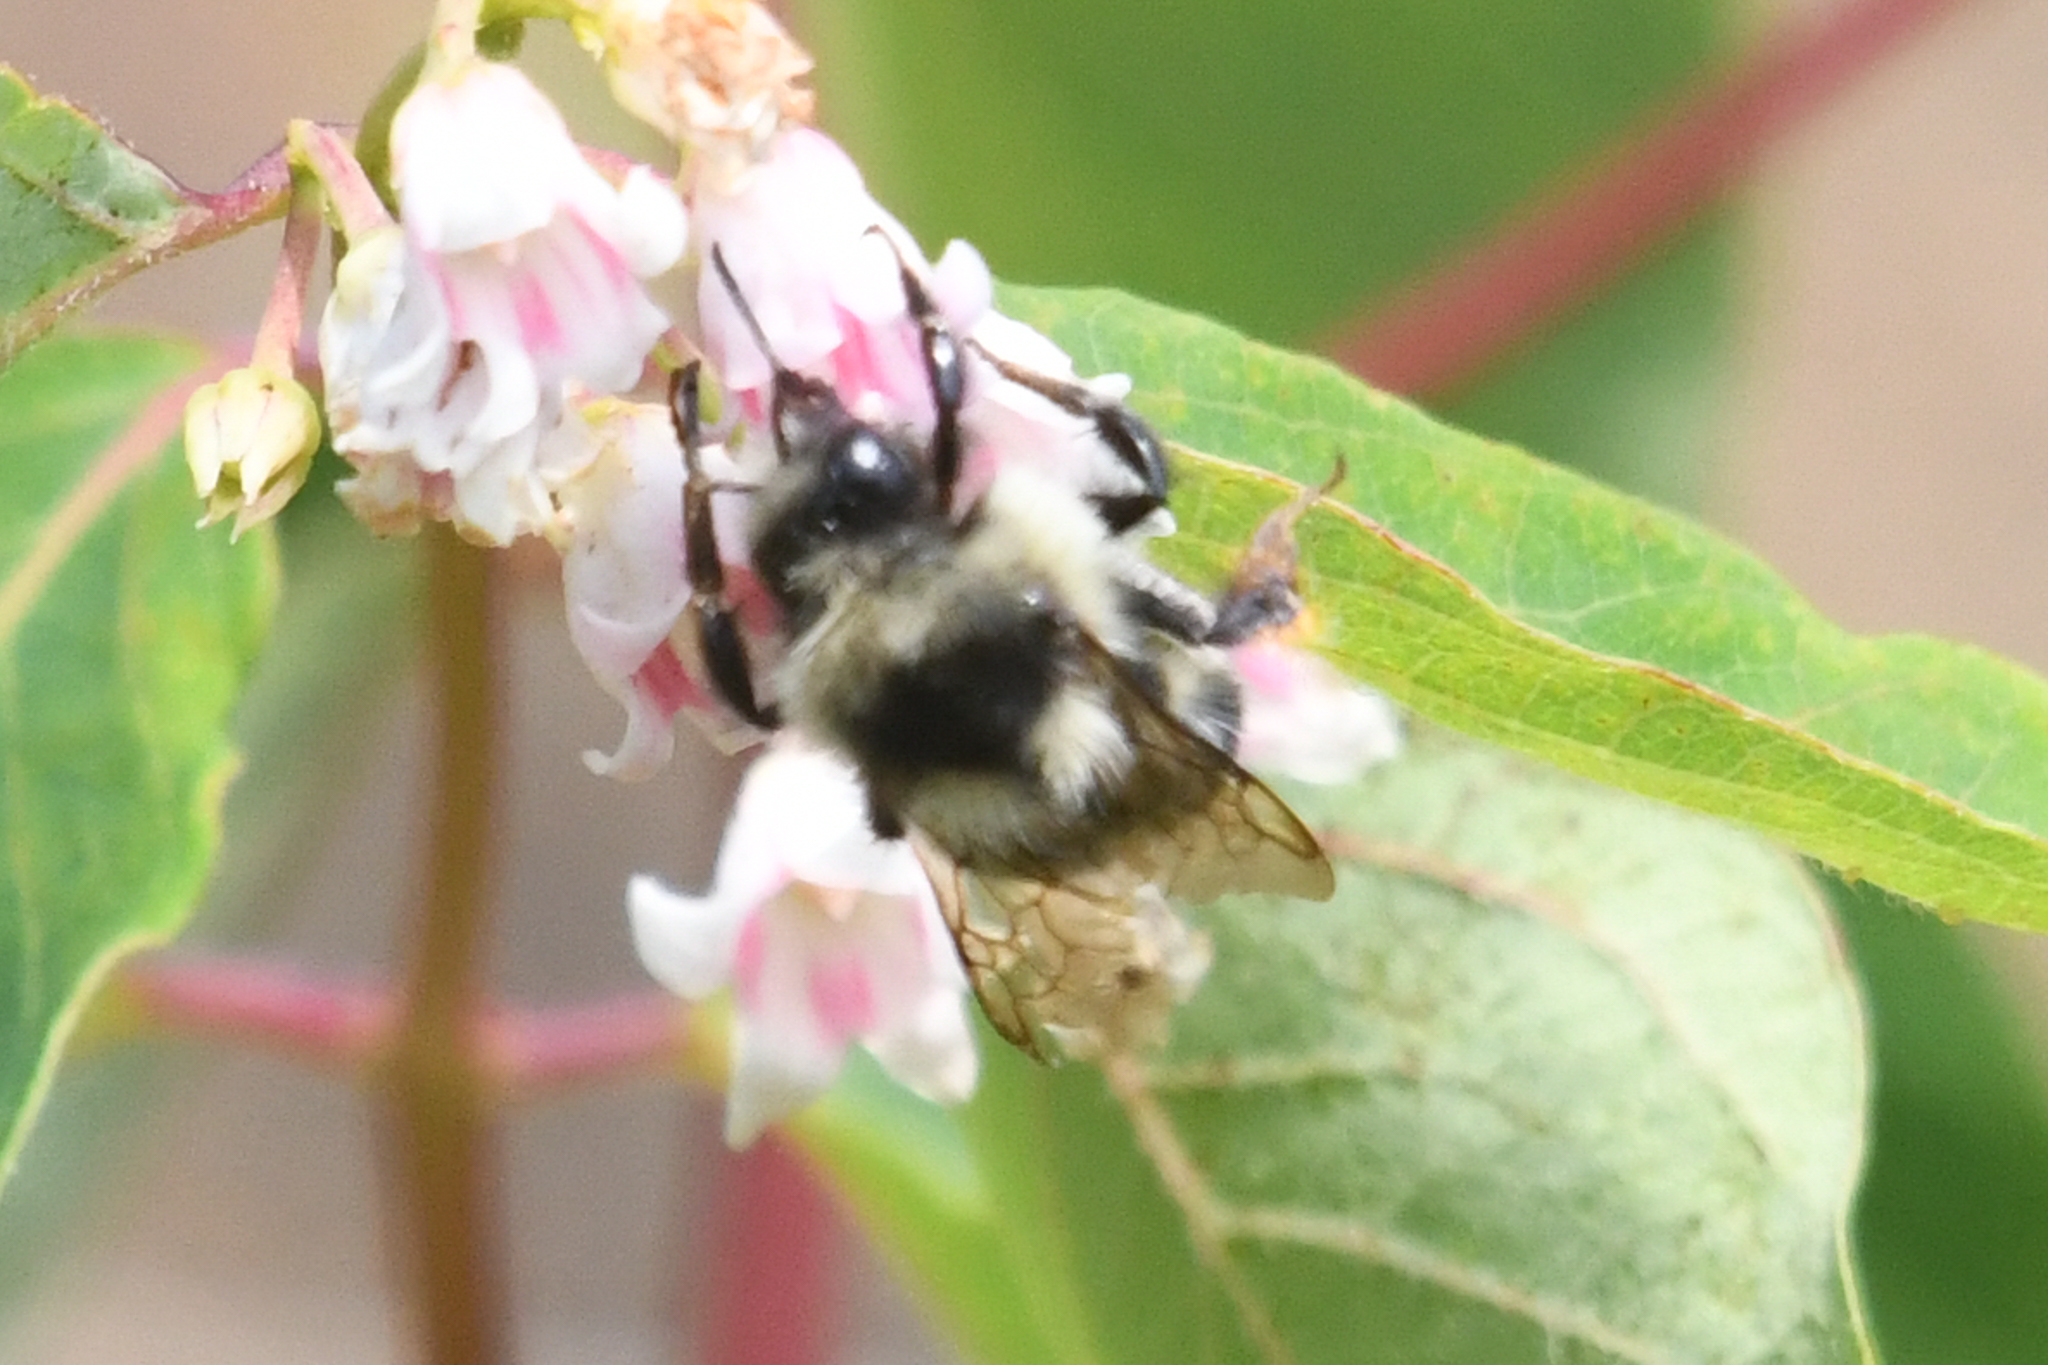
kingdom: Animalia
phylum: Arthropoda
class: Insecta
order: Hymenoptera
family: Apidae
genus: Bombus
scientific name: Bombus vancouverensis
